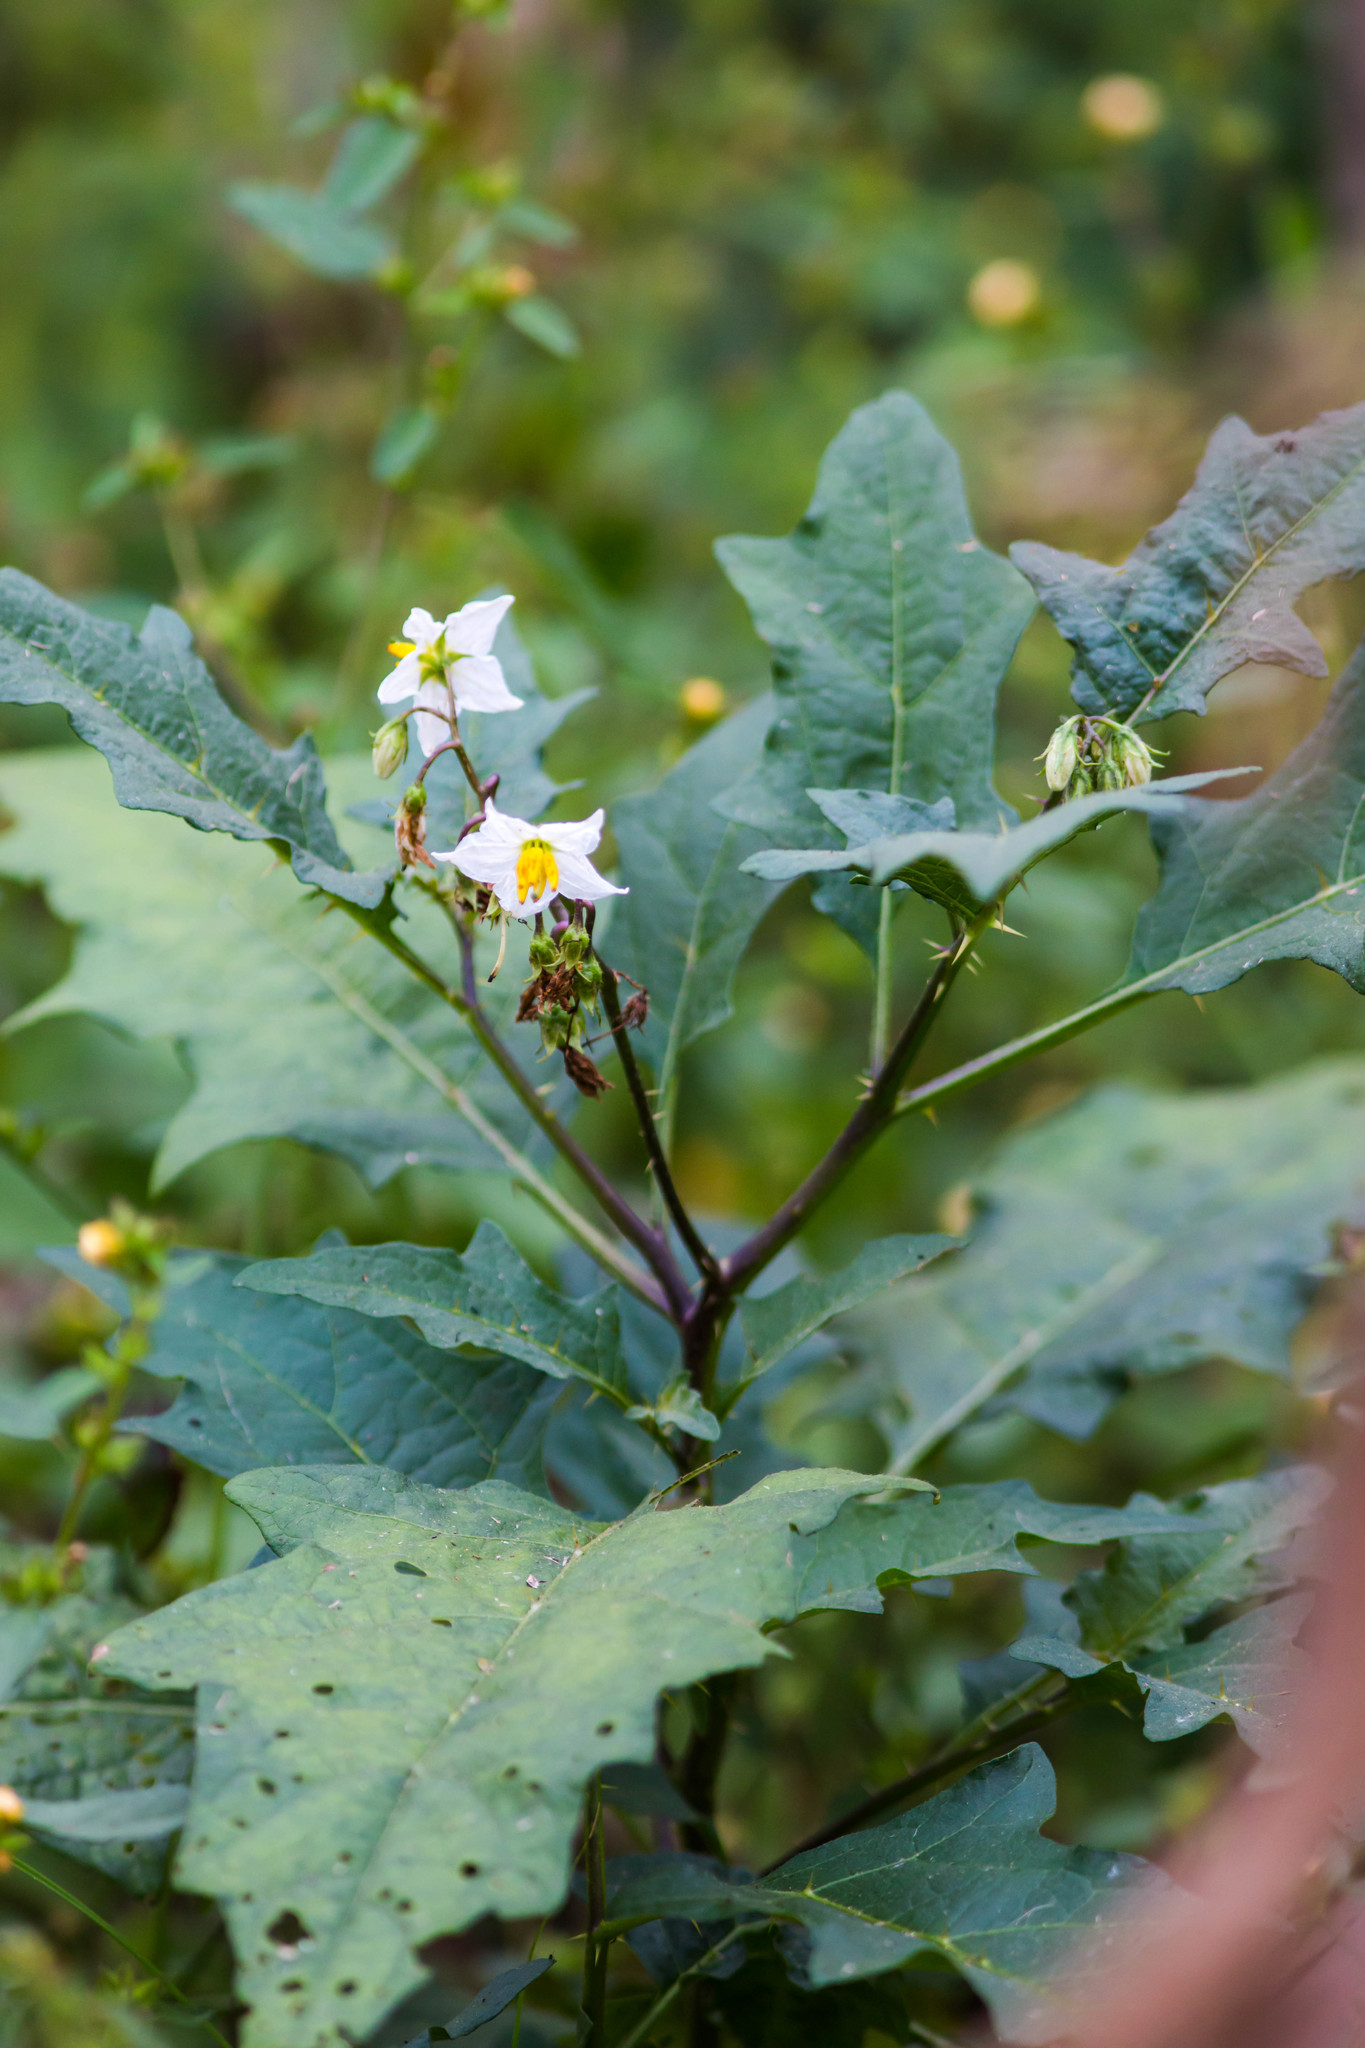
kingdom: Plantae
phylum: Tracheophyta
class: Magnoliopsida
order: Solanales
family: Solanaceae
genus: Solanum
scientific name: Solanum carolinense
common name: Horse-nettle
